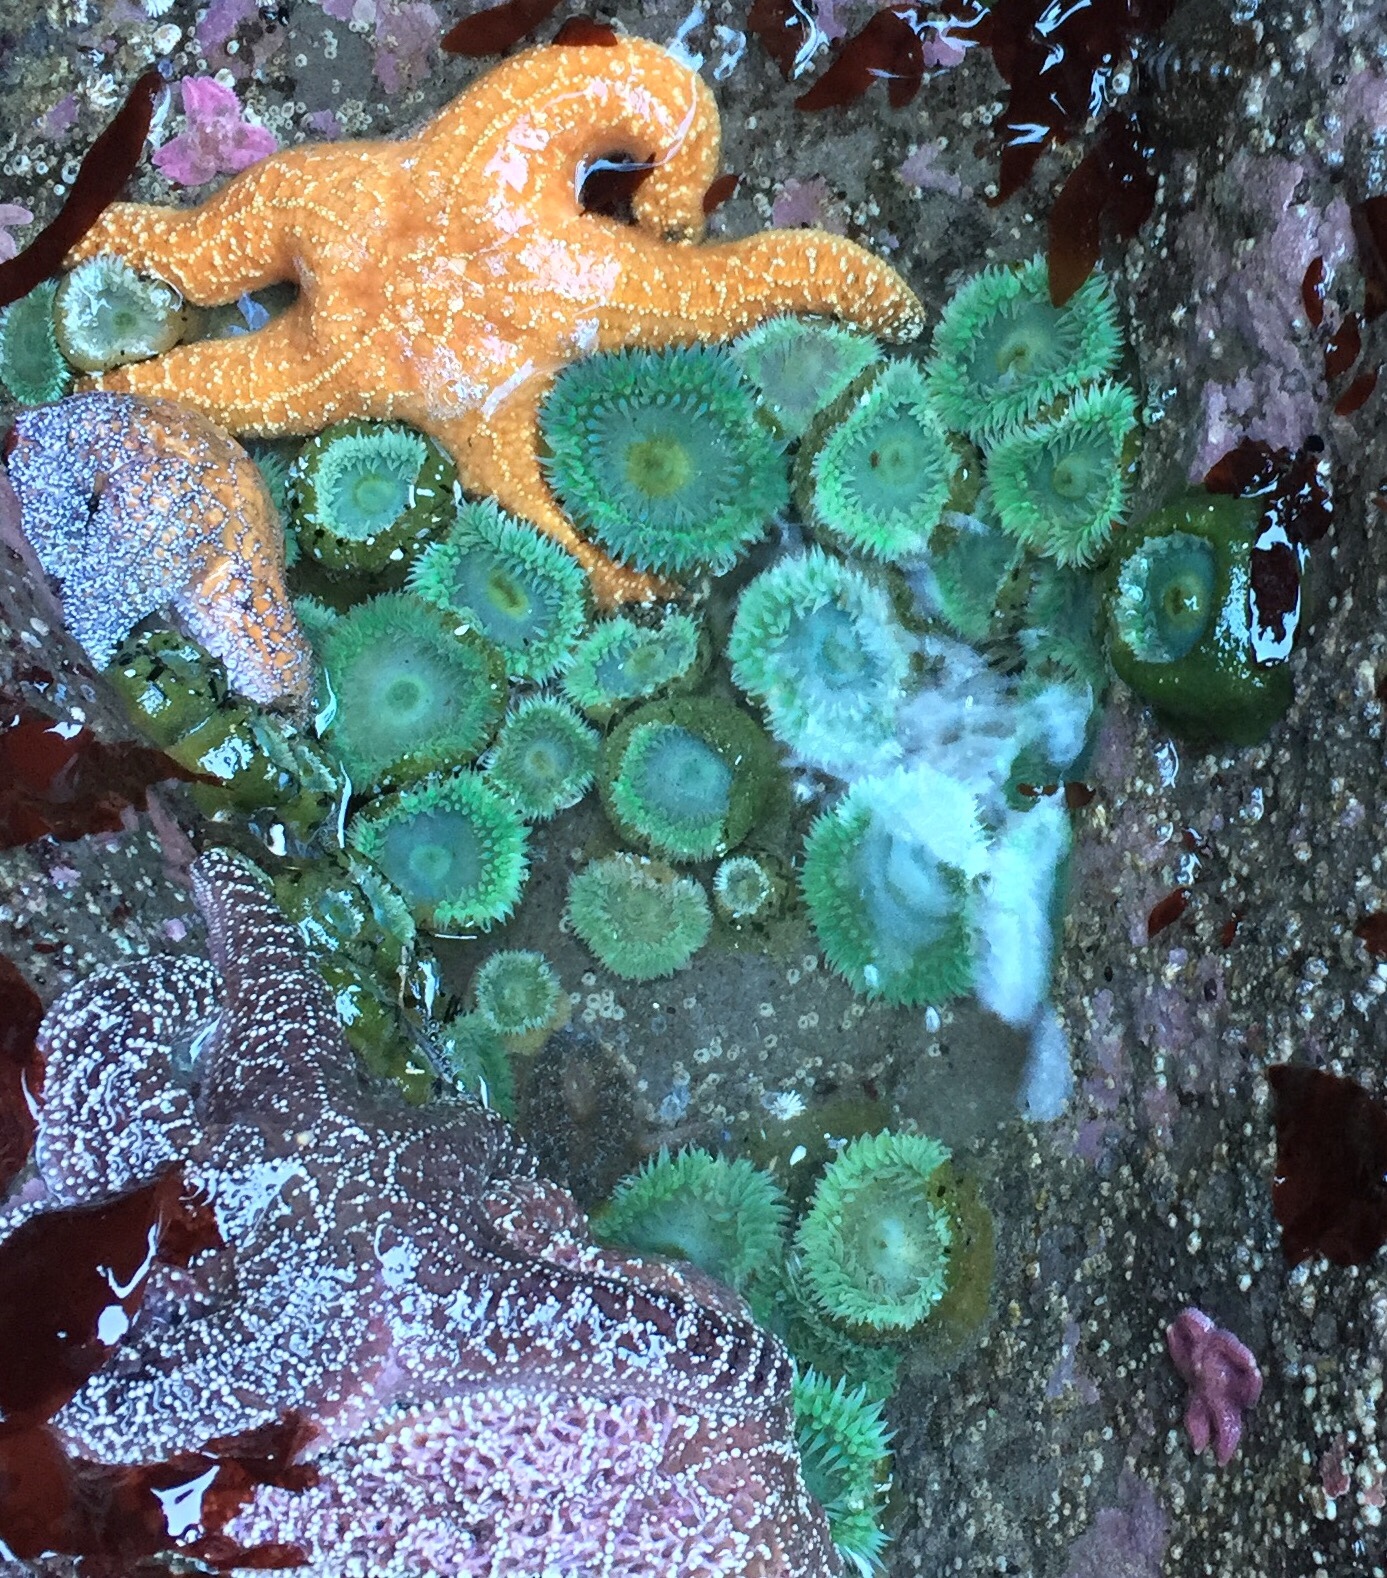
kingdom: Animalia
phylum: Cnidaria
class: Anthozoa
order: Actiniaria
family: Actiniidae
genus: Anthopleura
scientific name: Anthopleura xanthogrammica
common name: Giant green anemone
